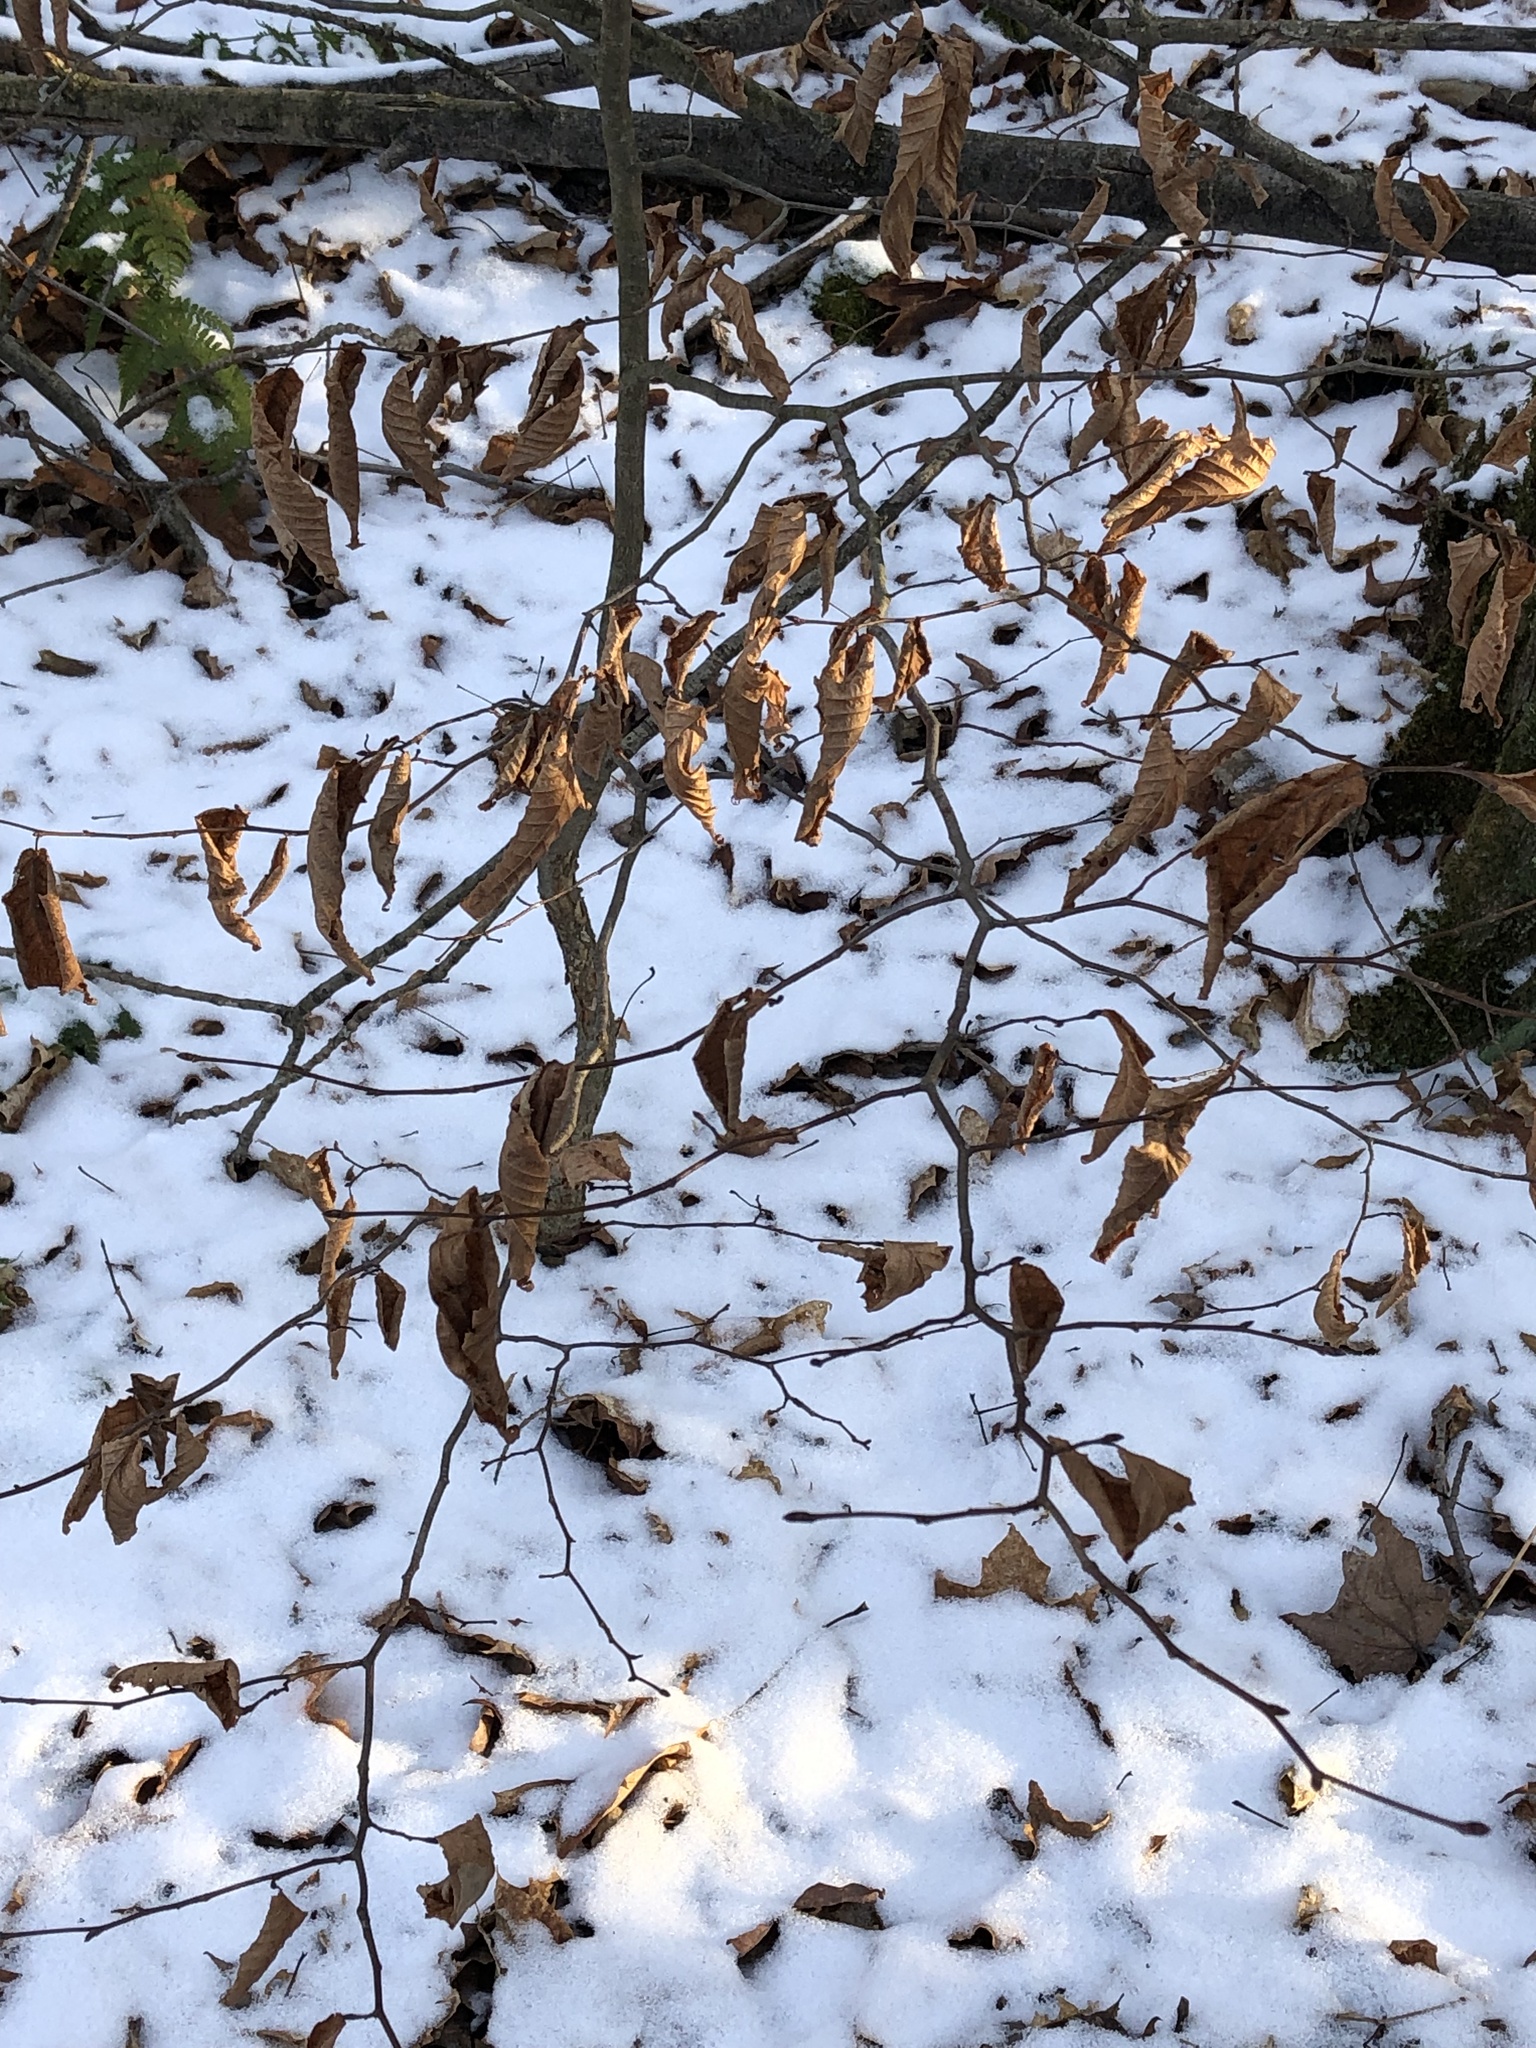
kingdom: Plantae
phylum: Tracheophyta
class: Magnoliopsida
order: Fagales
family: Fagaceae
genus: Fagus
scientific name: Fagus grandifolia
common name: American beech
